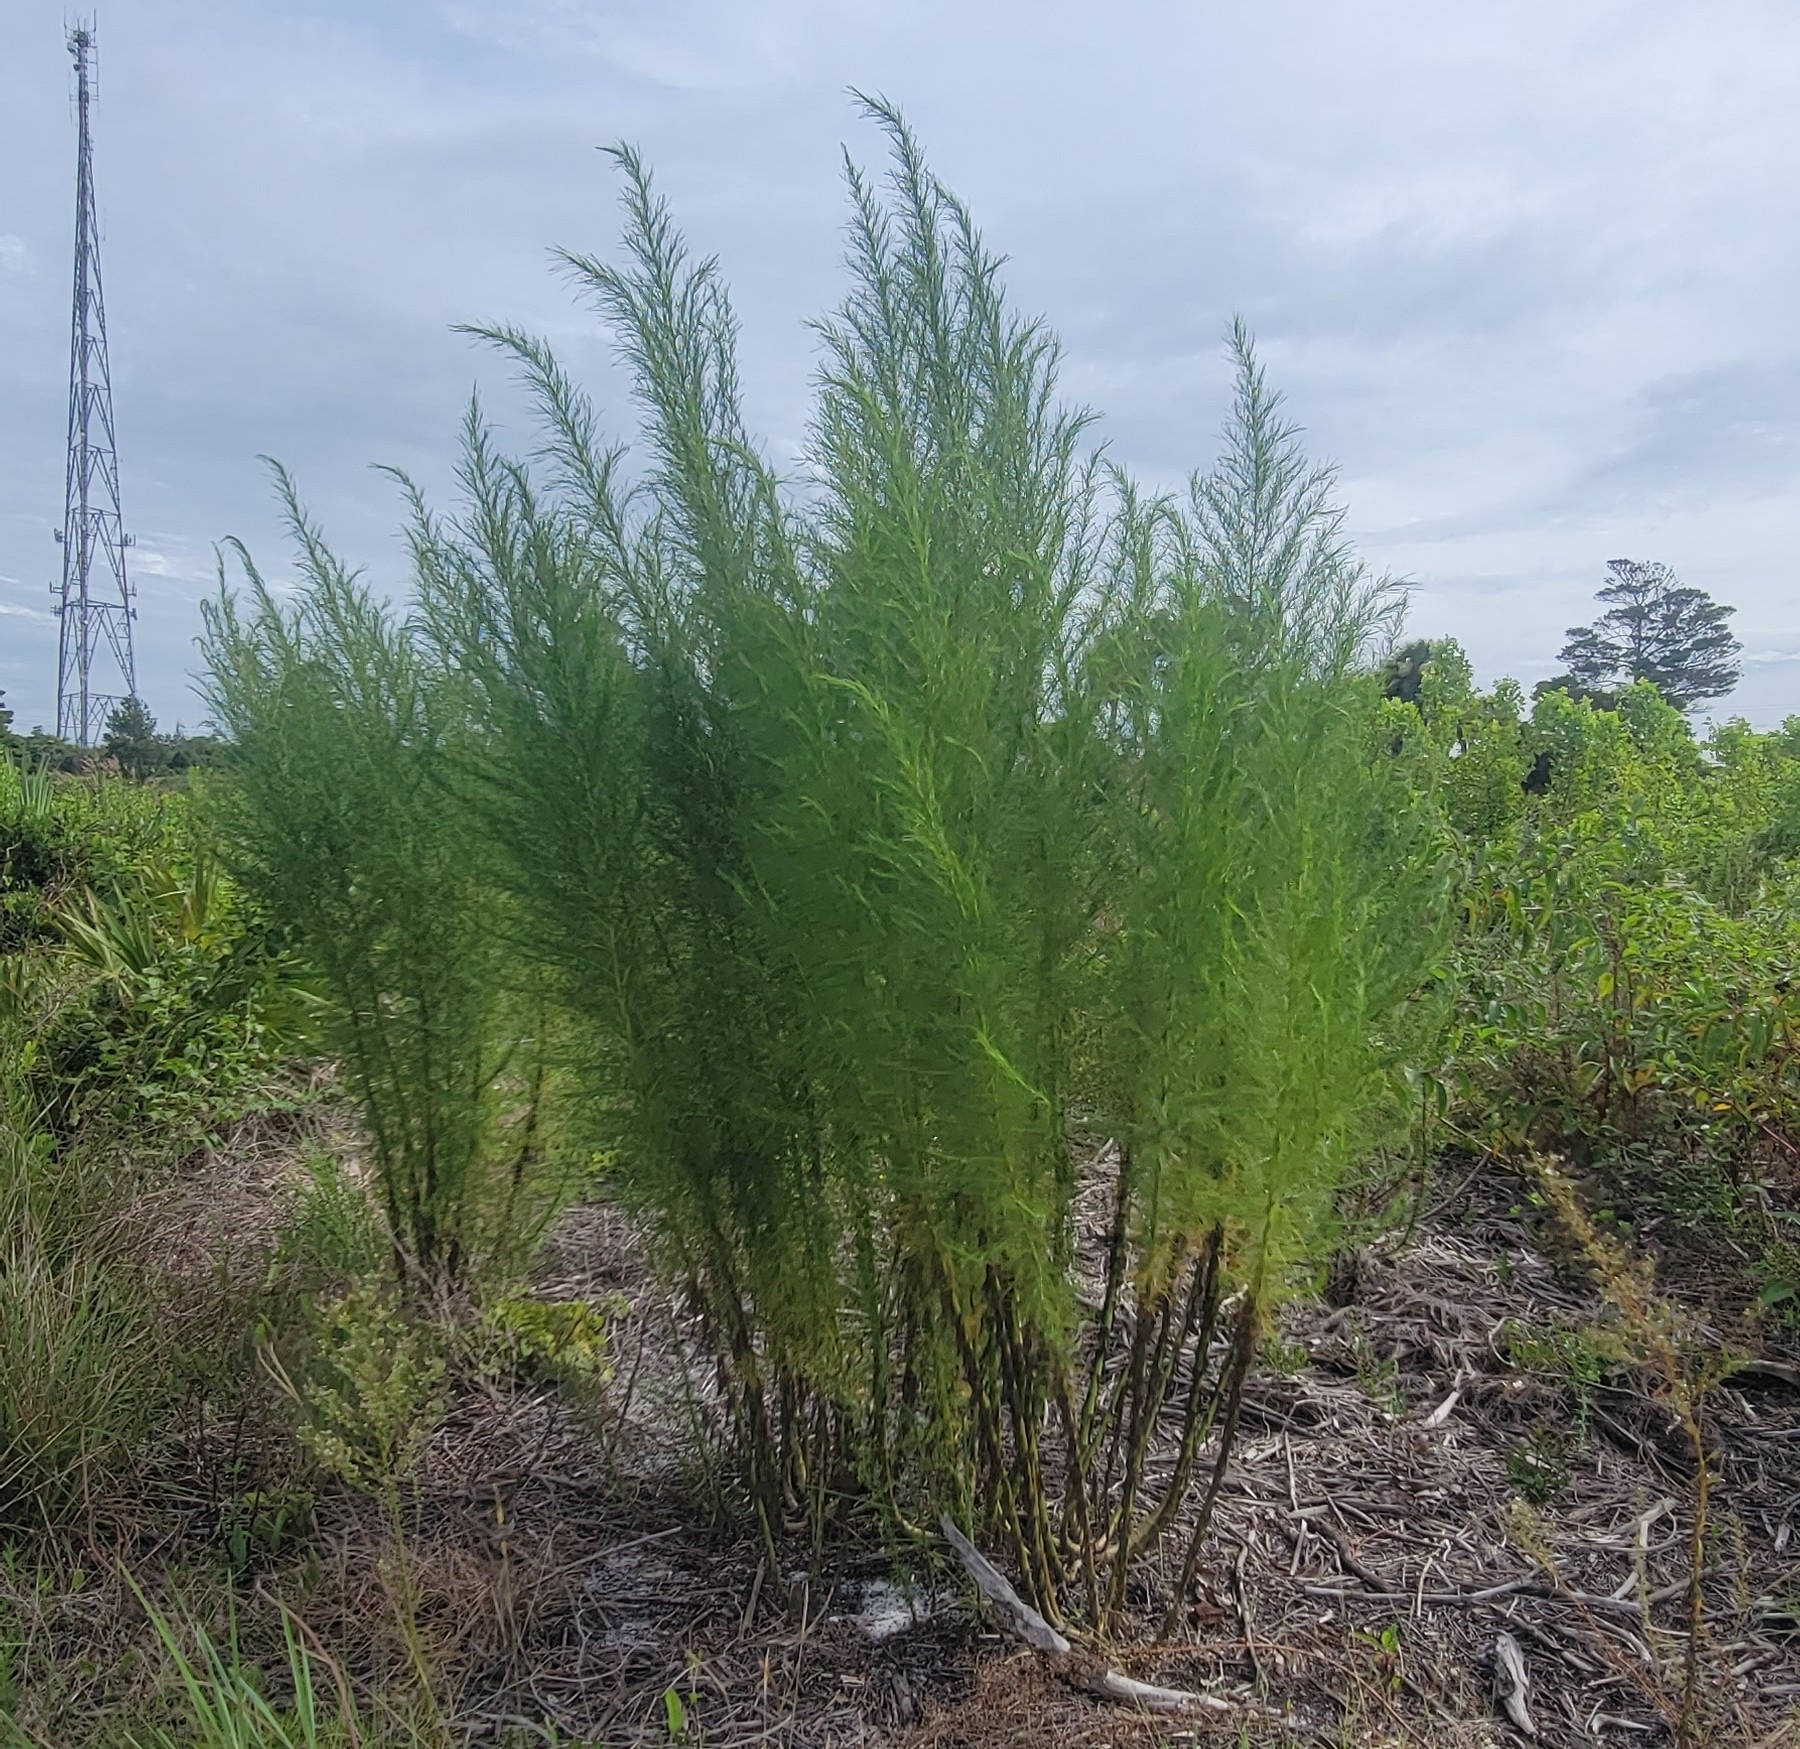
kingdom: Plantae
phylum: Tracheophyta
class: Magnoliopsida
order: Asterales
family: Asteraceae
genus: Eupatorium
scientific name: Eupatorium capillifolium
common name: Dog-fennel
